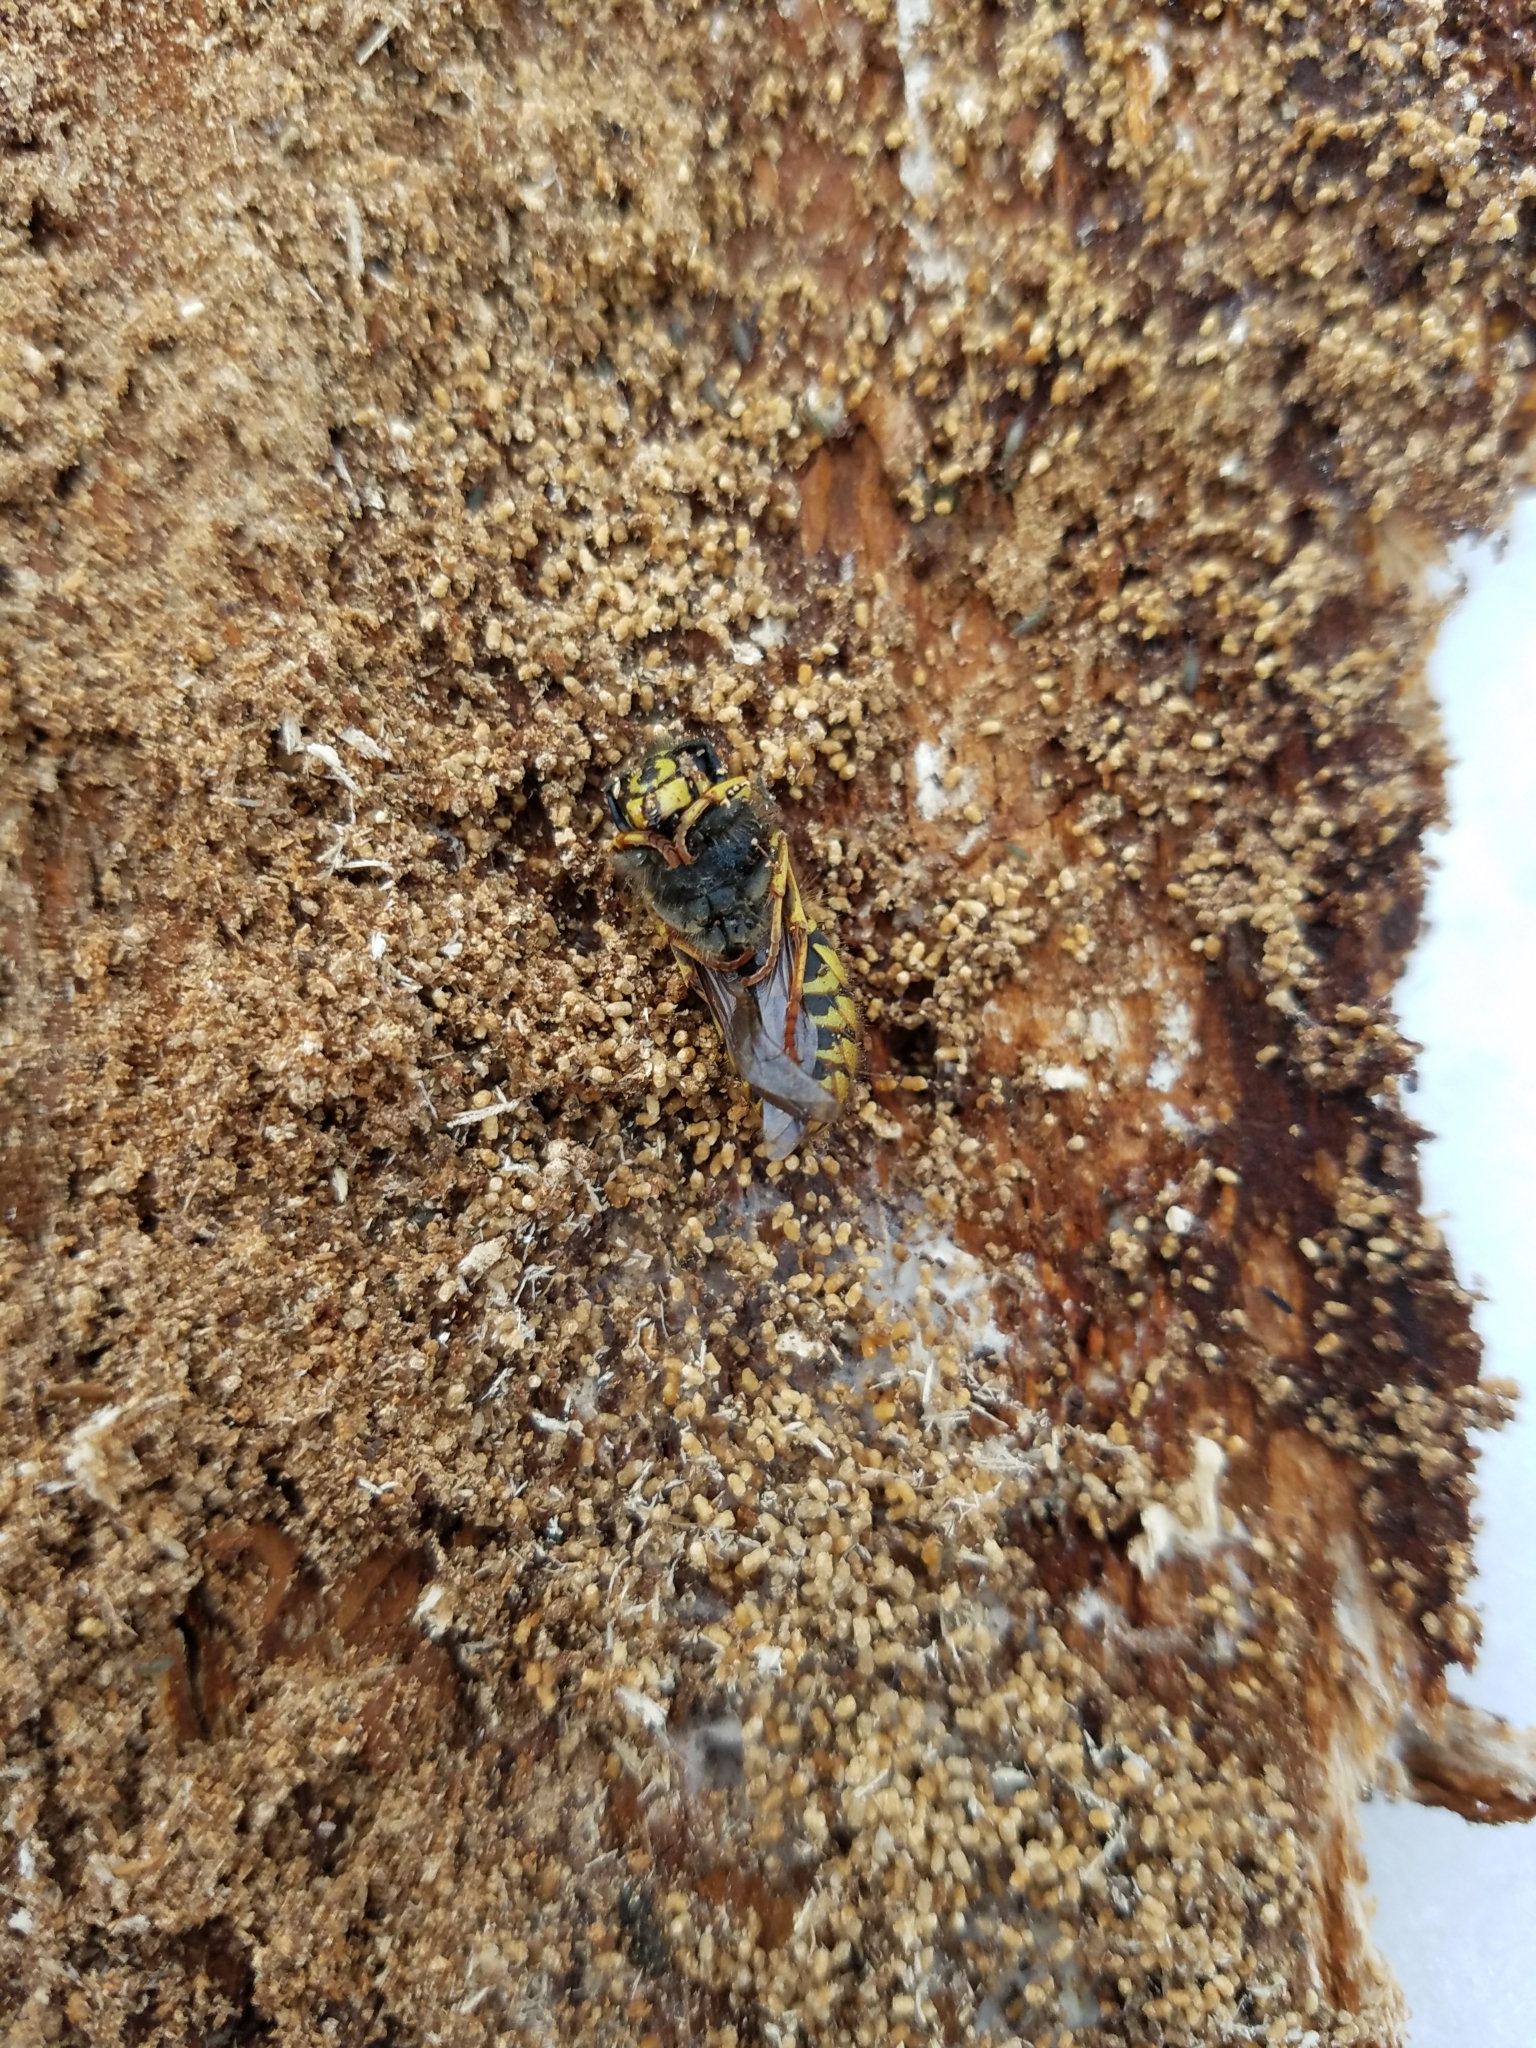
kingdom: Animalia
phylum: Arthropoda
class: Insecta
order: Hymenoptera
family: Vespidae
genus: Vespula
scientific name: Vespula alascensis
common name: Alaska yellowjacket
